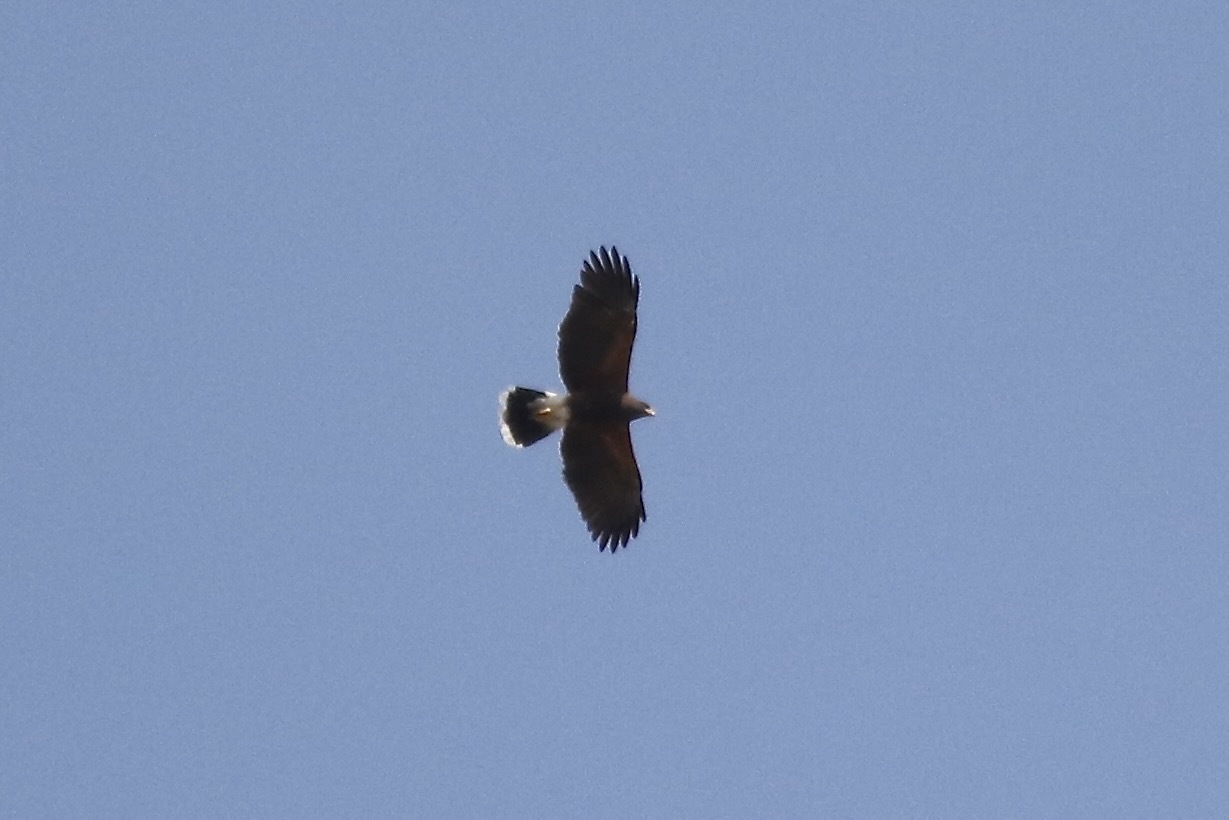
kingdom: Animalia
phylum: Chordata
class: Aves
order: Accipitriformes
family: Accipitridae
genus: Parabuteo
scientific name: Parabuteo unicinctus
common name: Harris's hawk
